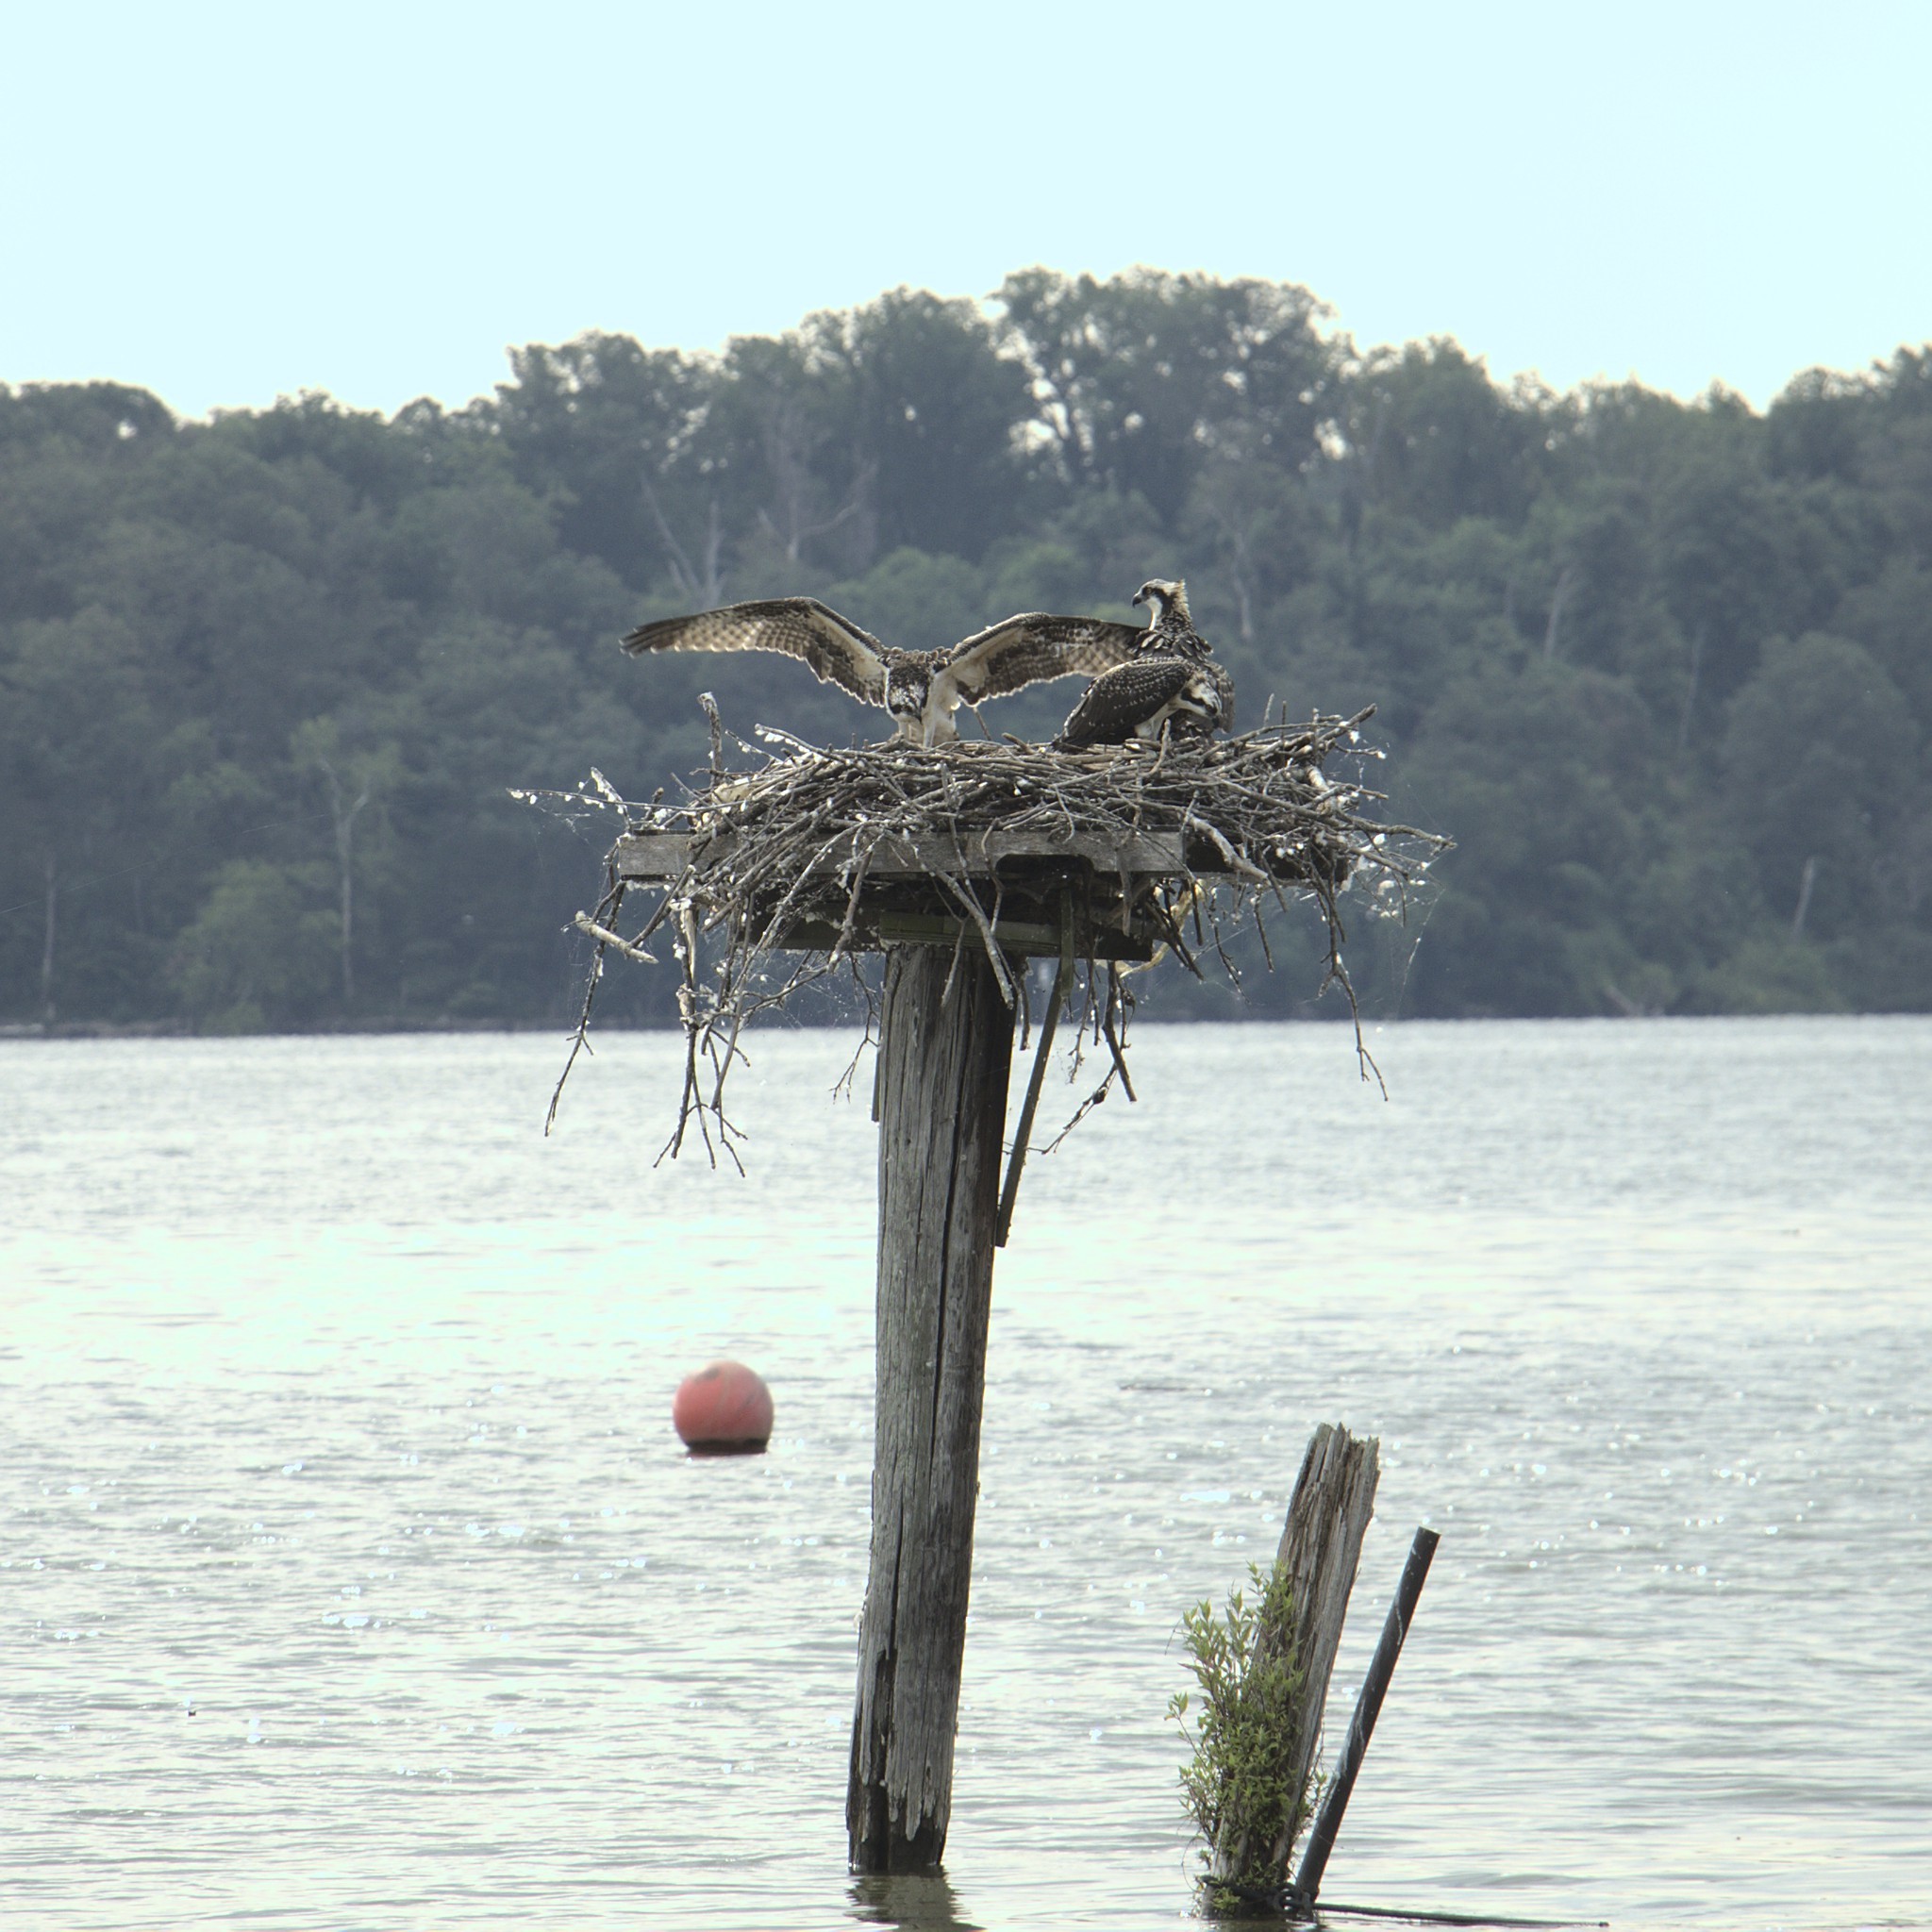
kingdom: Animalia
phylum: Chordata
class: Aves
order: Accipitriformes
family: Pandionidae
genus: Pandion
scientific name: Pandion haliaetus
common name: Osprey
